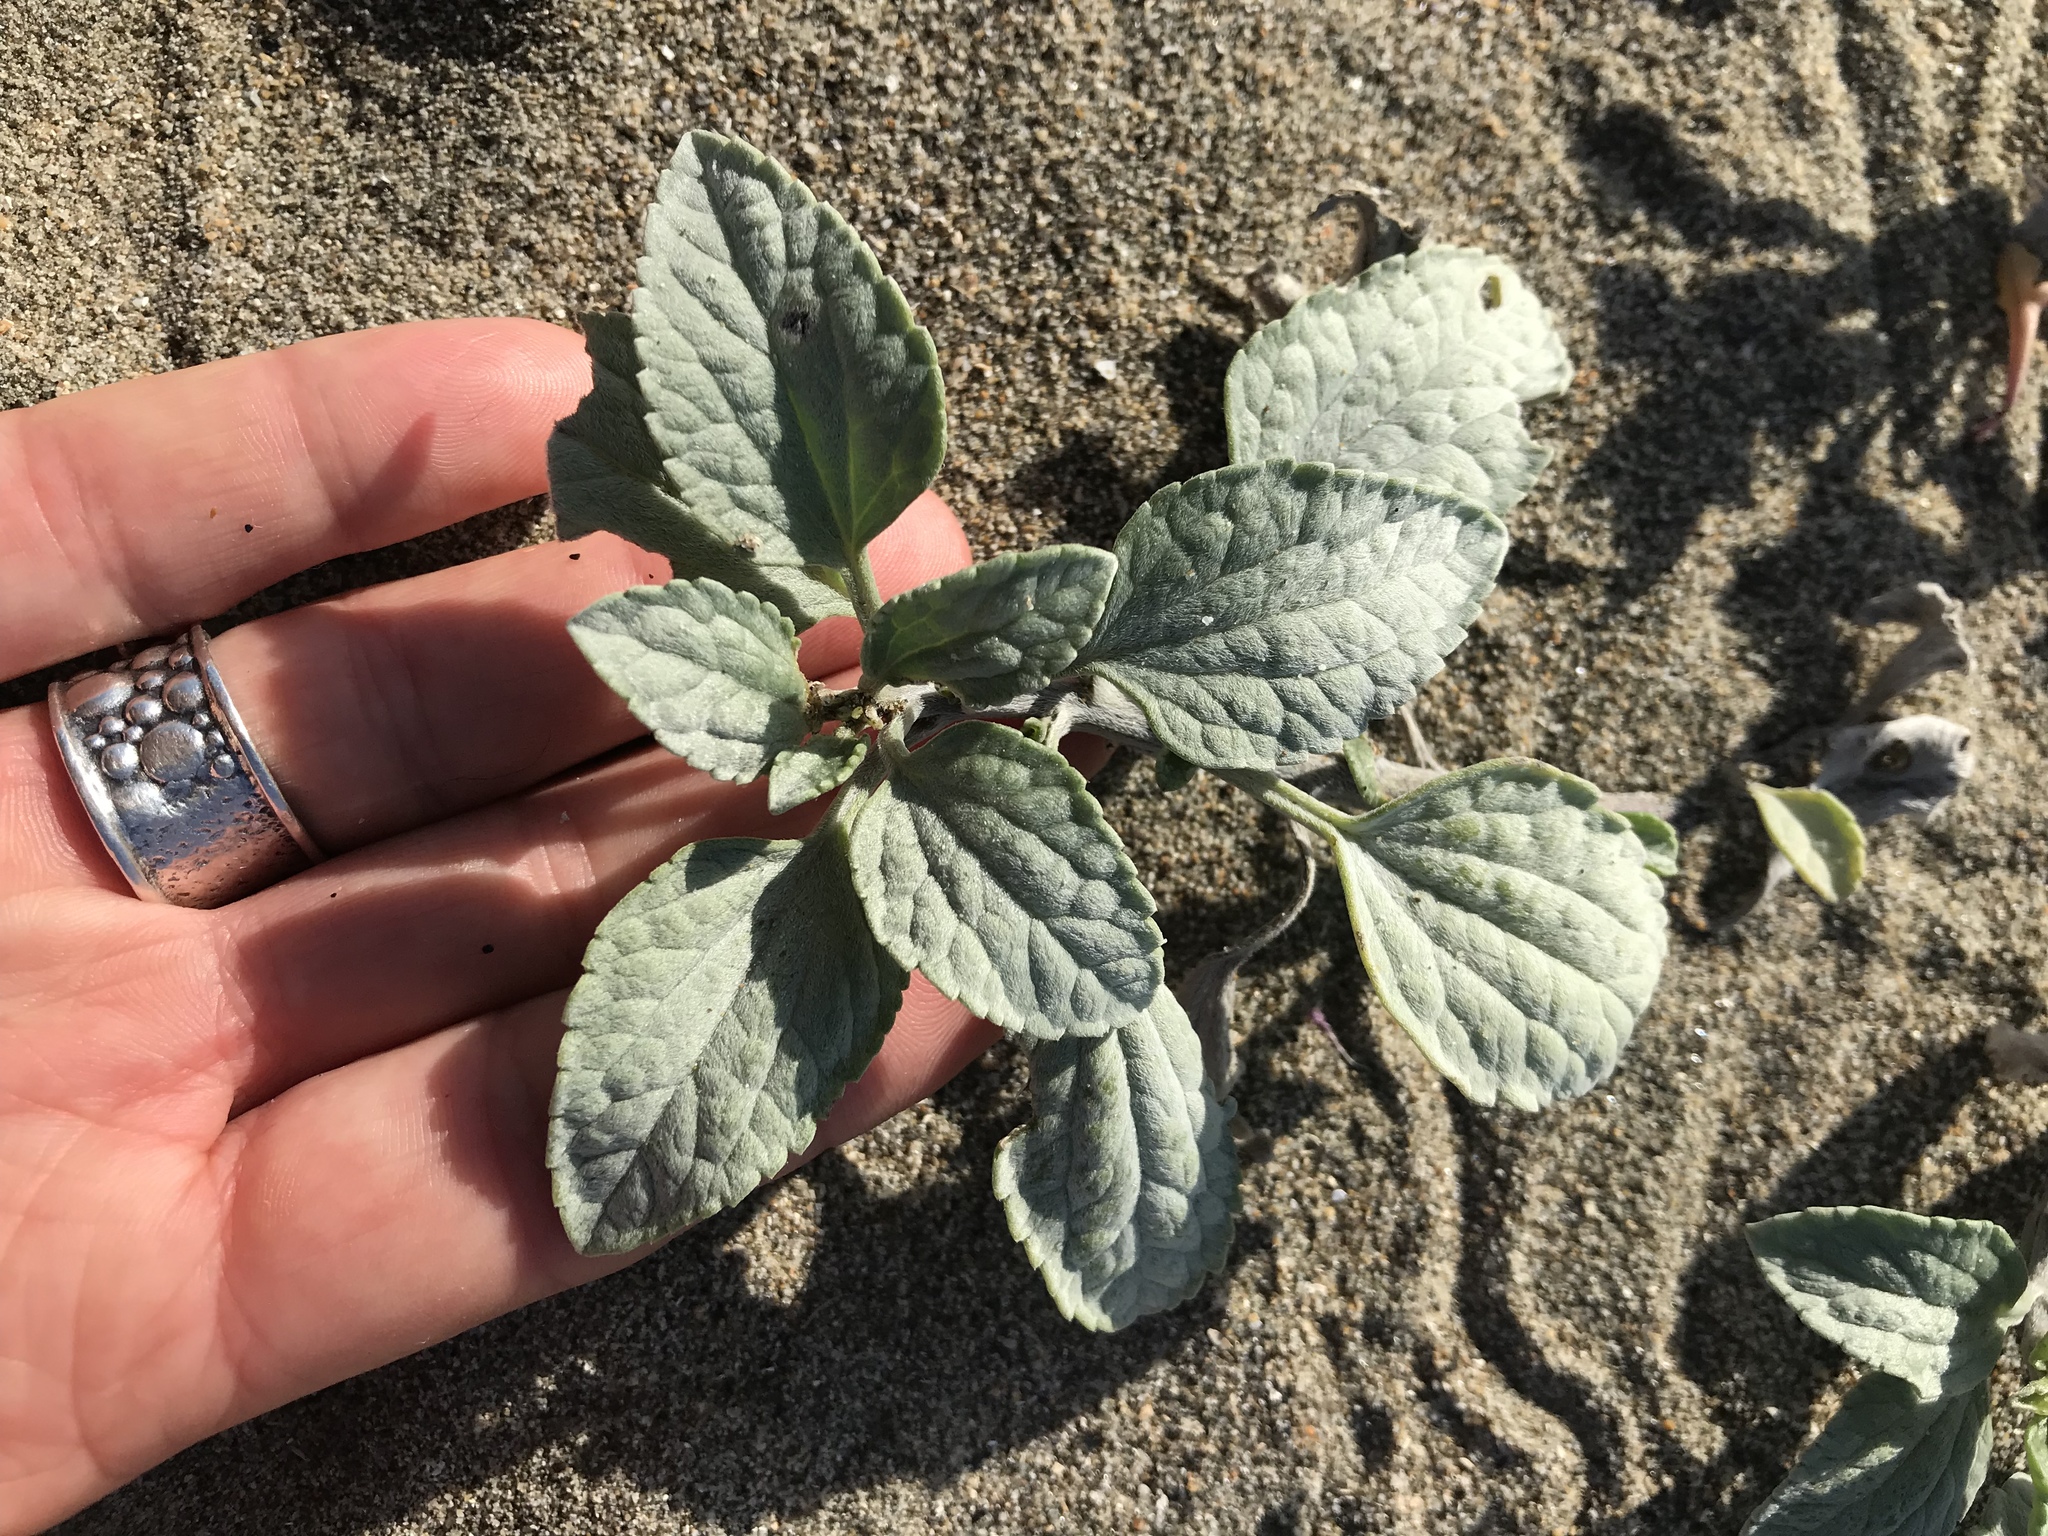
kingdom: Plantae
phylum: Tracheophyta
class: Magnoliopsida
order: Asterales
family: Asteraceae
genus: Ambrosia
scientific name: Ambrosia chamissonis
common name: Beachbur
